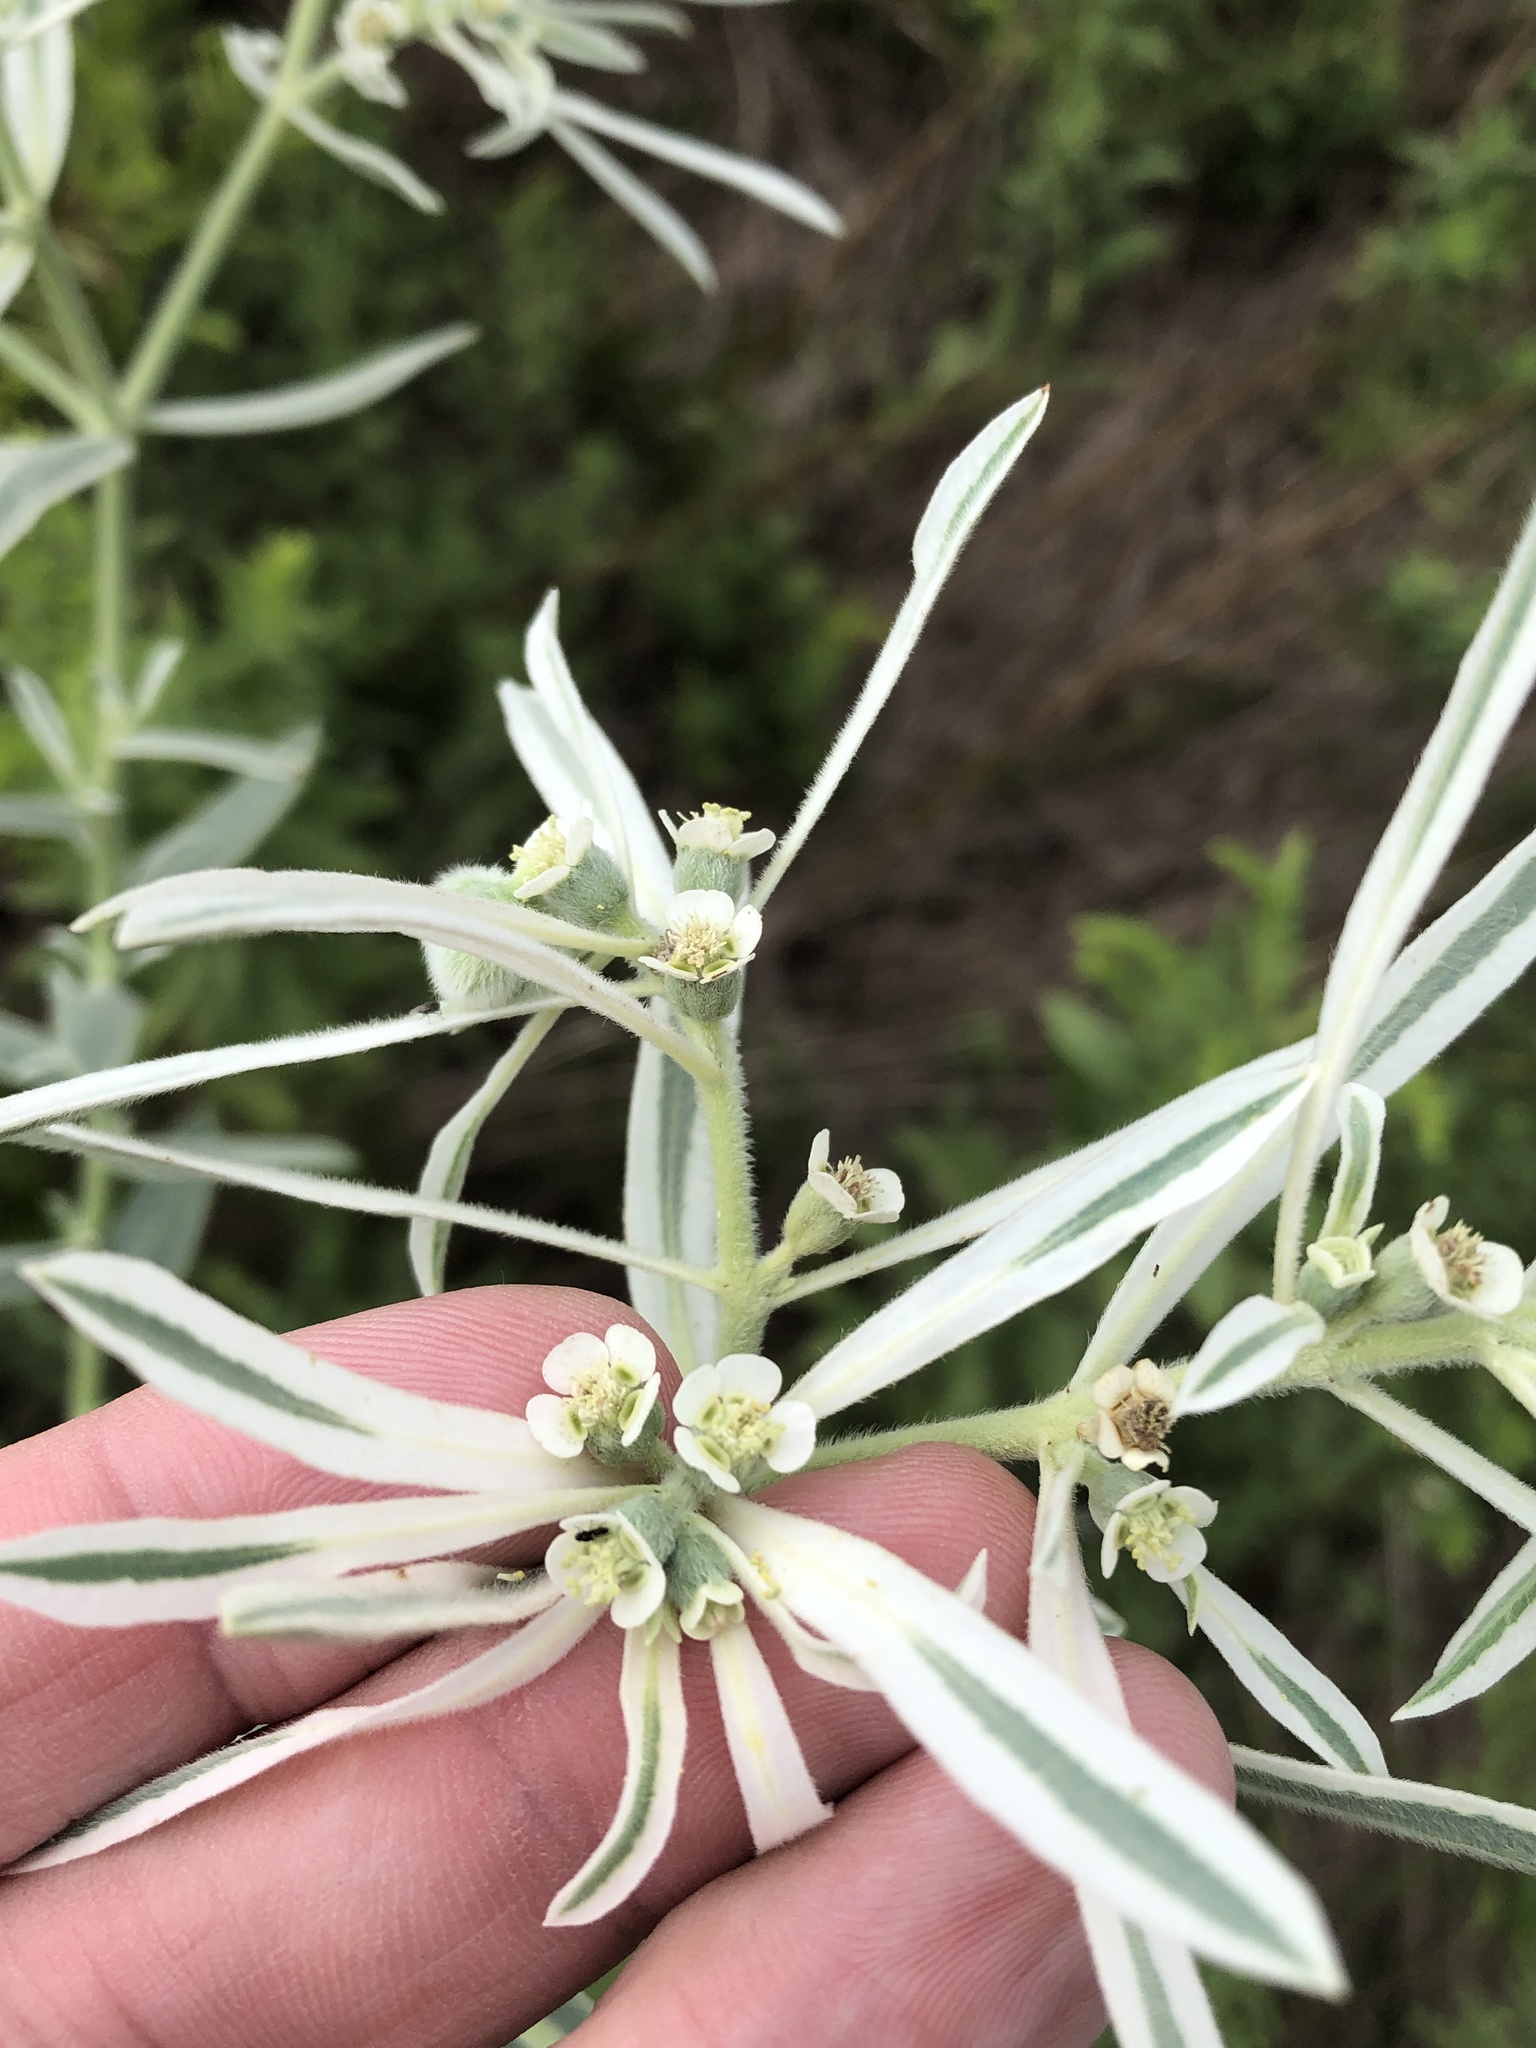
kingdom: Plantae
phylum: Tracheophyta
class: Magnoliopsida
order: Malpighiales
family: Euphorbiaceae
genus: Euphorbia
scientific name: Euphorbia bicolor
